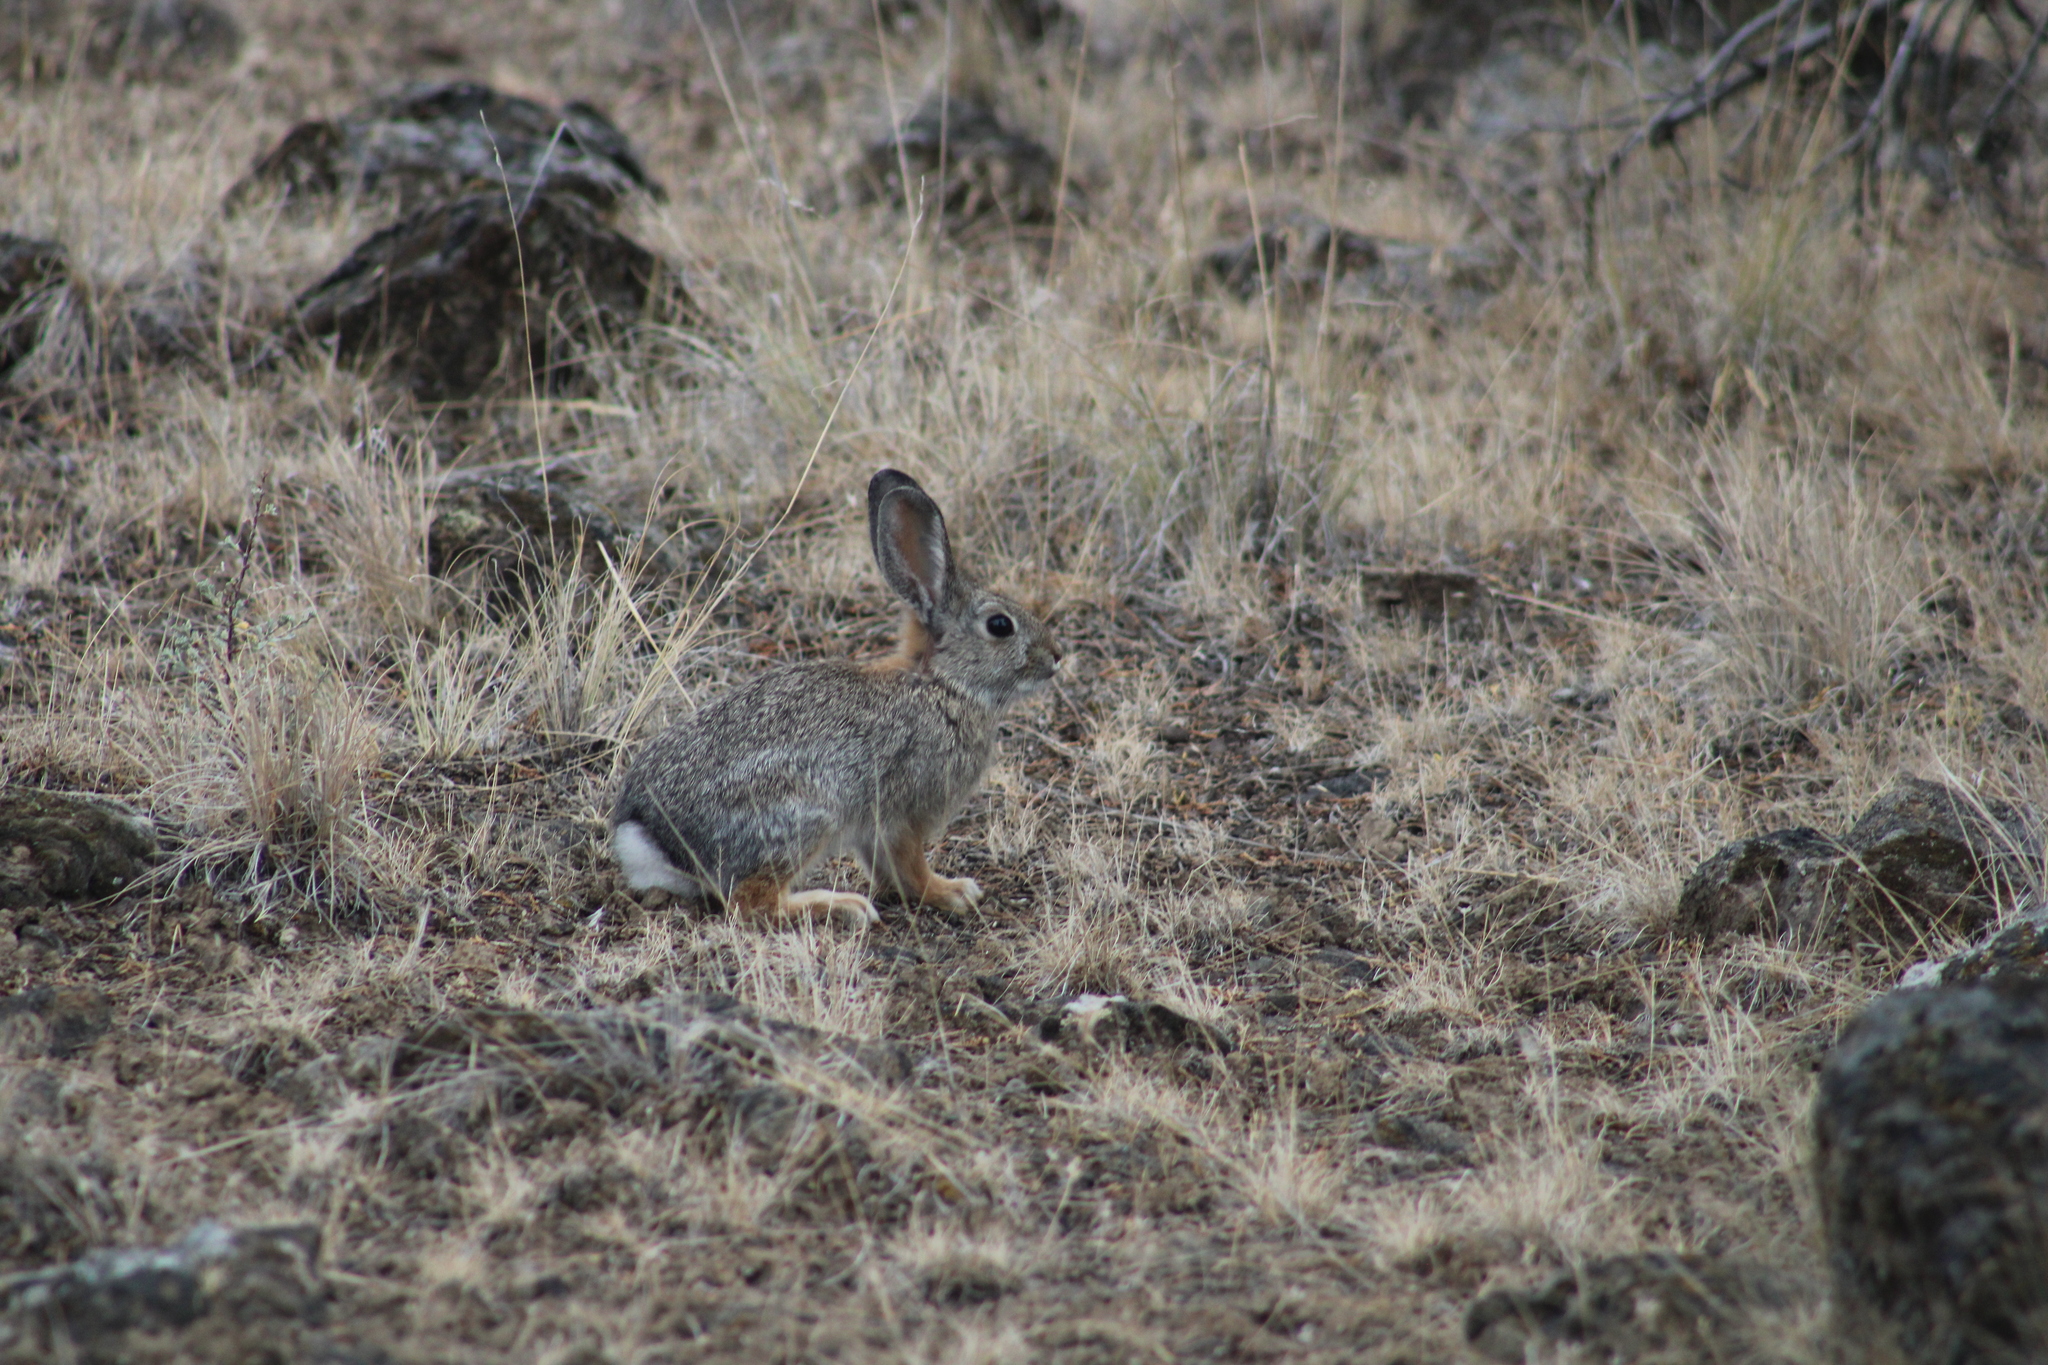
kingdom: Animalia
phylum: Chordata
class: Mammalia
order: Lagomorpha
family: Leporidae
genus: Sylvilagus
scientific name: Sylvilagus nuttallii
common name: Mountain cottontail
